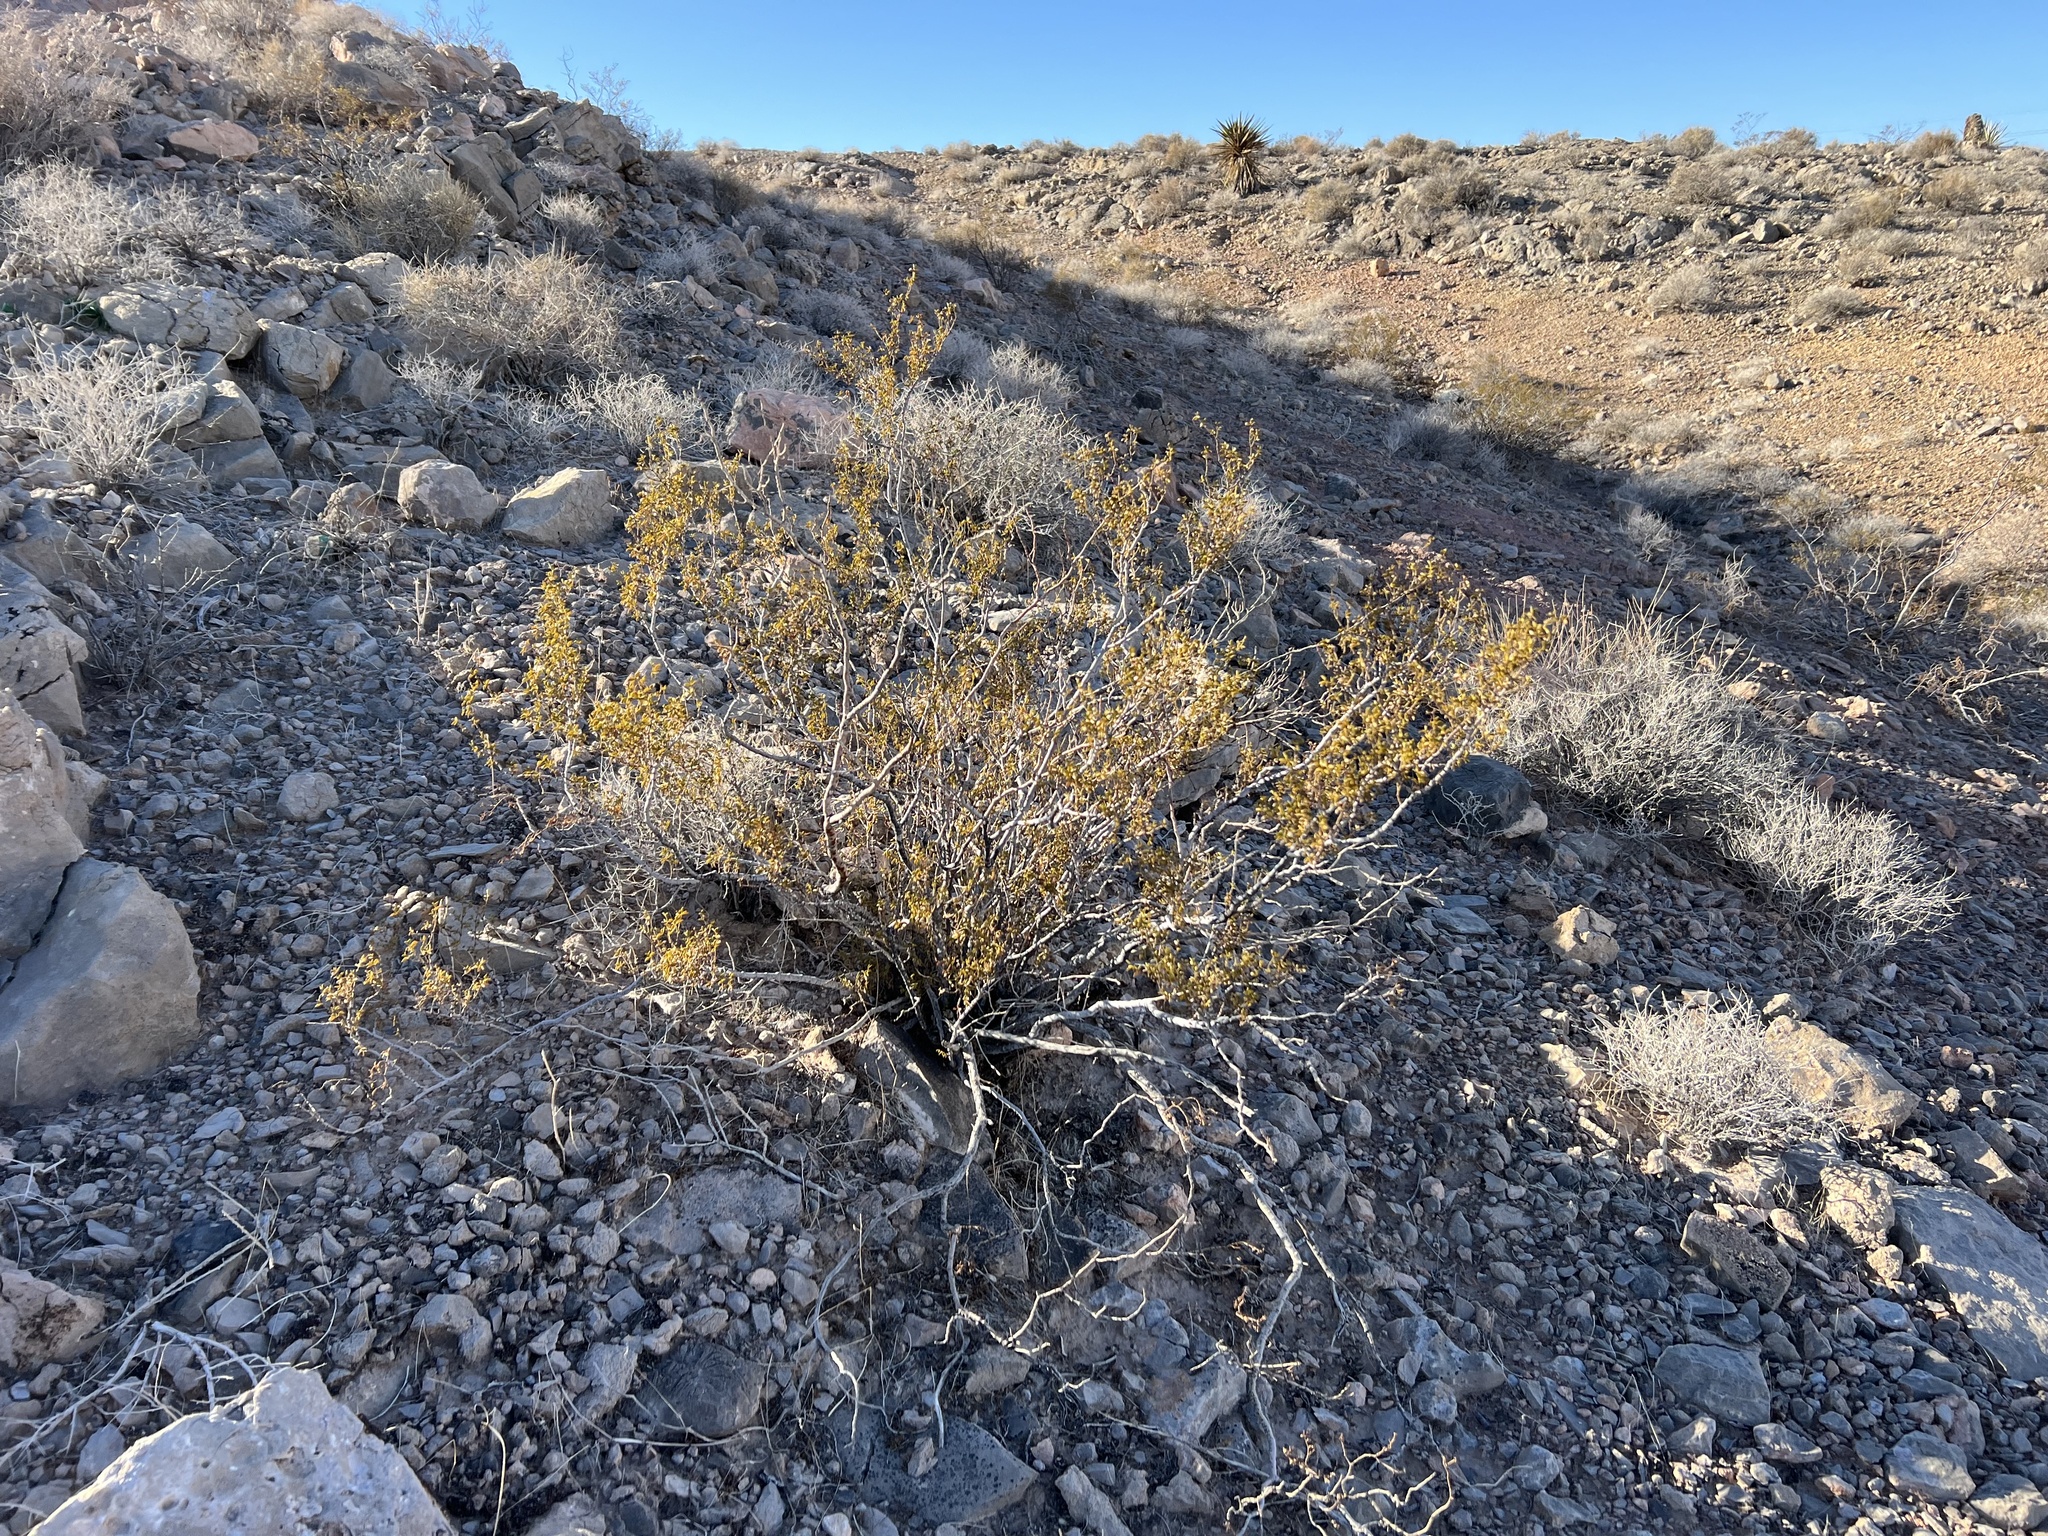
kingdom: Plantae
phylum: Tracheophyta
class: Magnoliopsida
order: Zygophyllales
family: Zygophyllaceae
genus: Larrea
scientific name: Larrea tridentata
